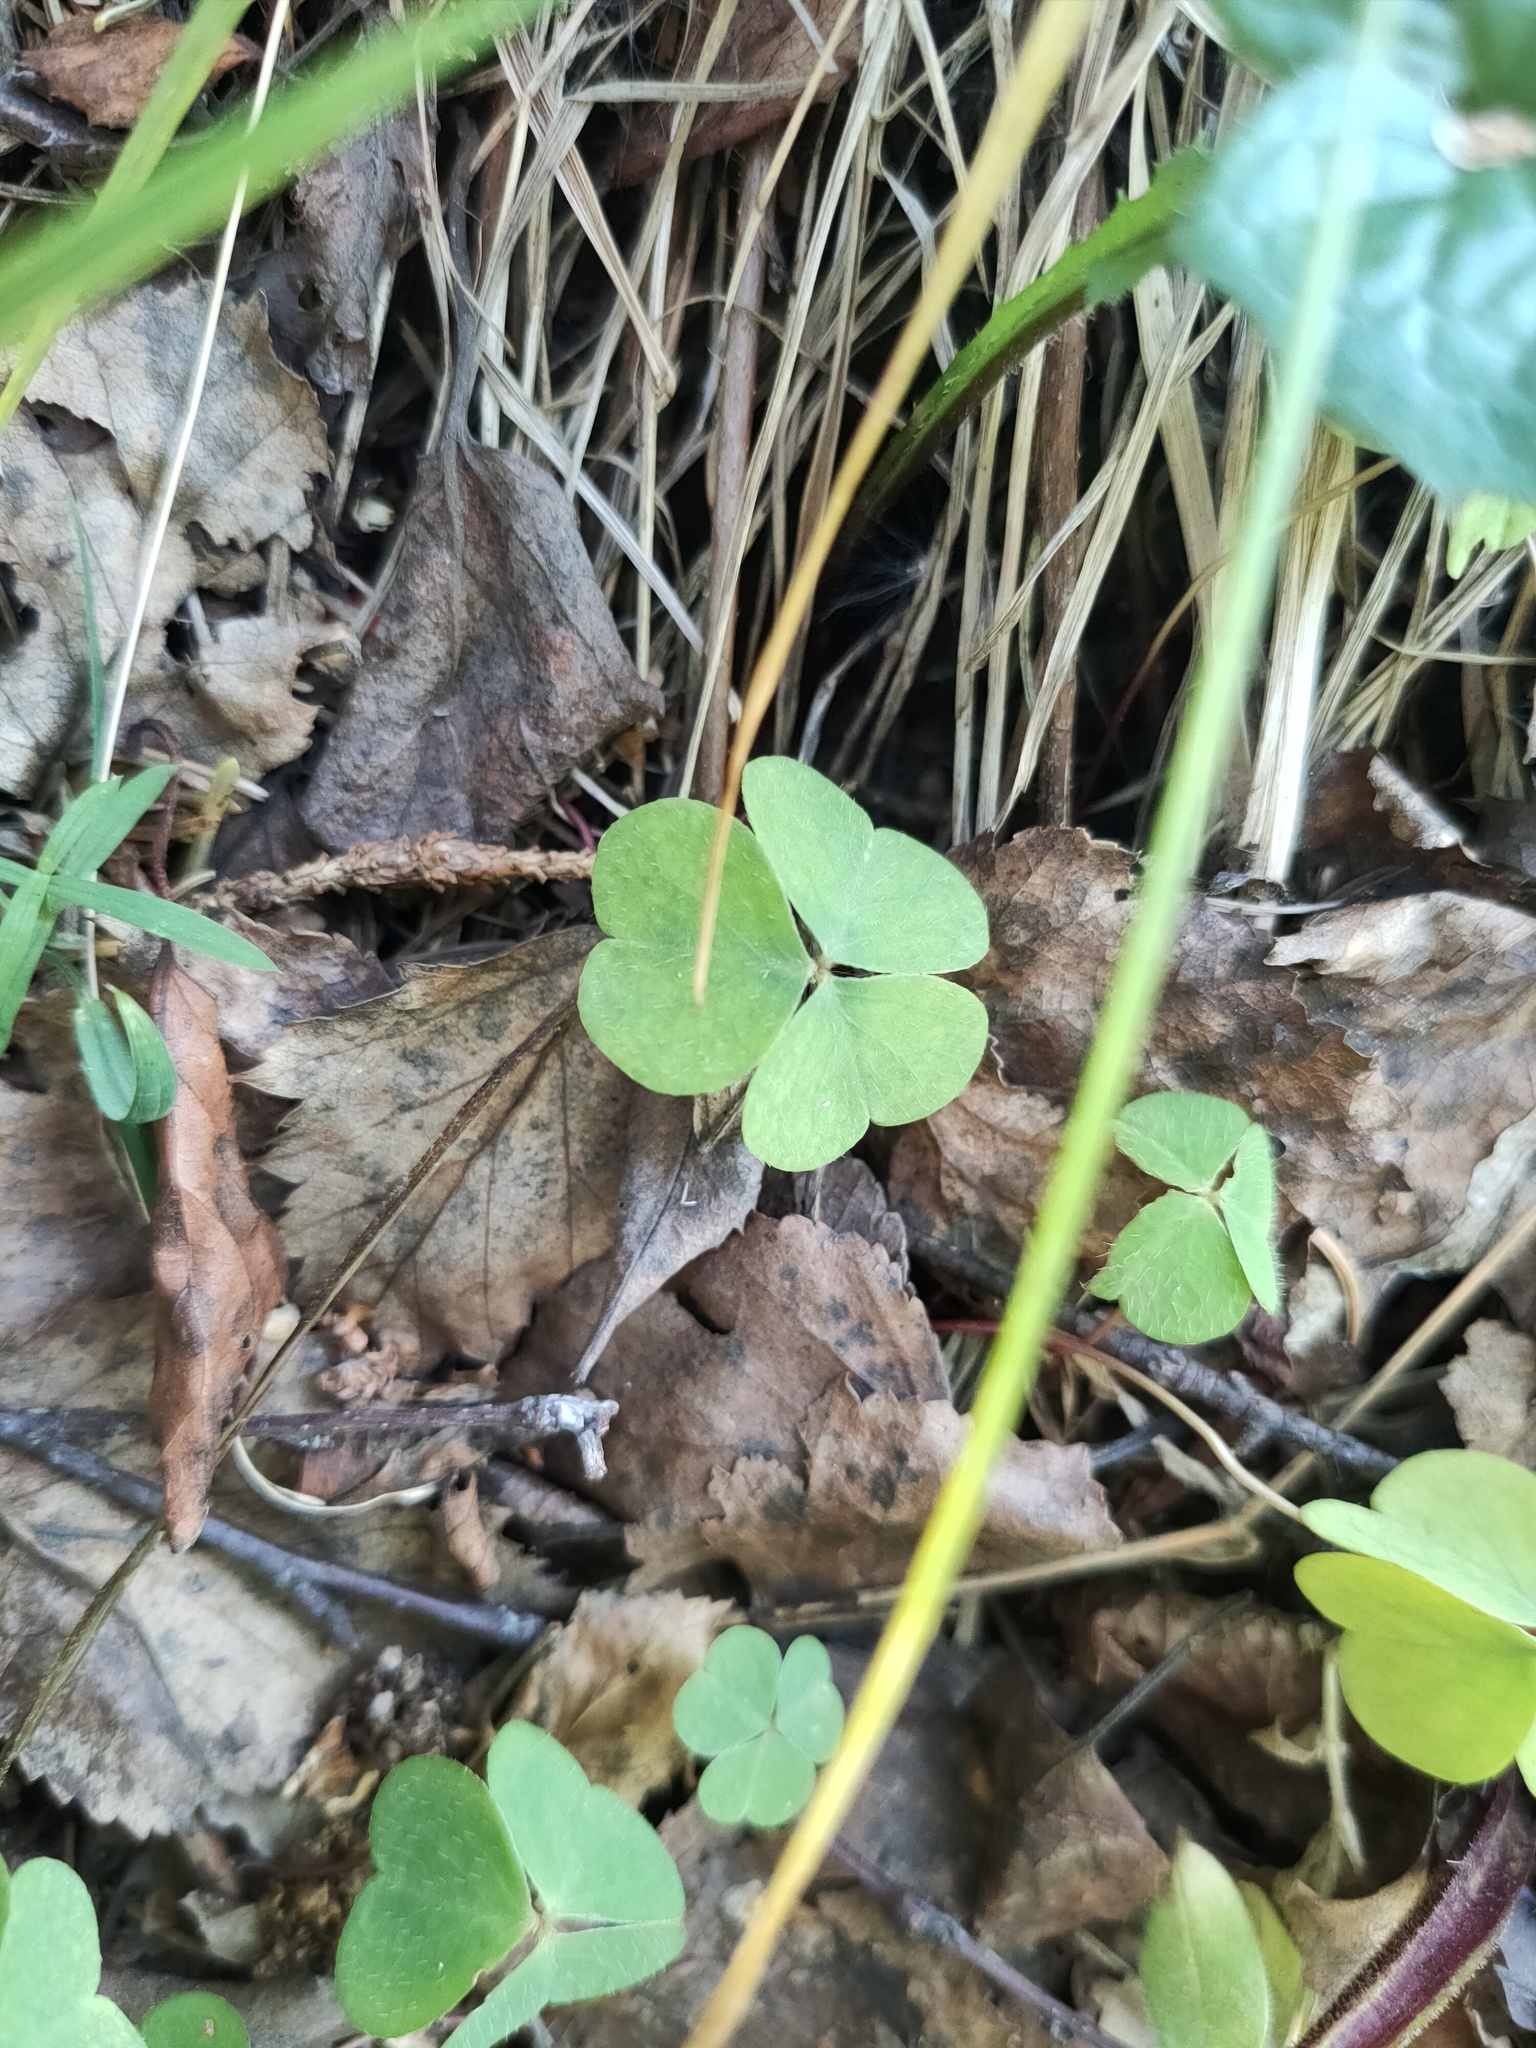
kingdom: Plantae
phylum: Tracheophyta
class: Magnoliopsida
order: Oxalidales
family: Oxalidaceae
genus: Oxalis
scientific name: Oxalis acetosella
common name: Wood-sorrel
